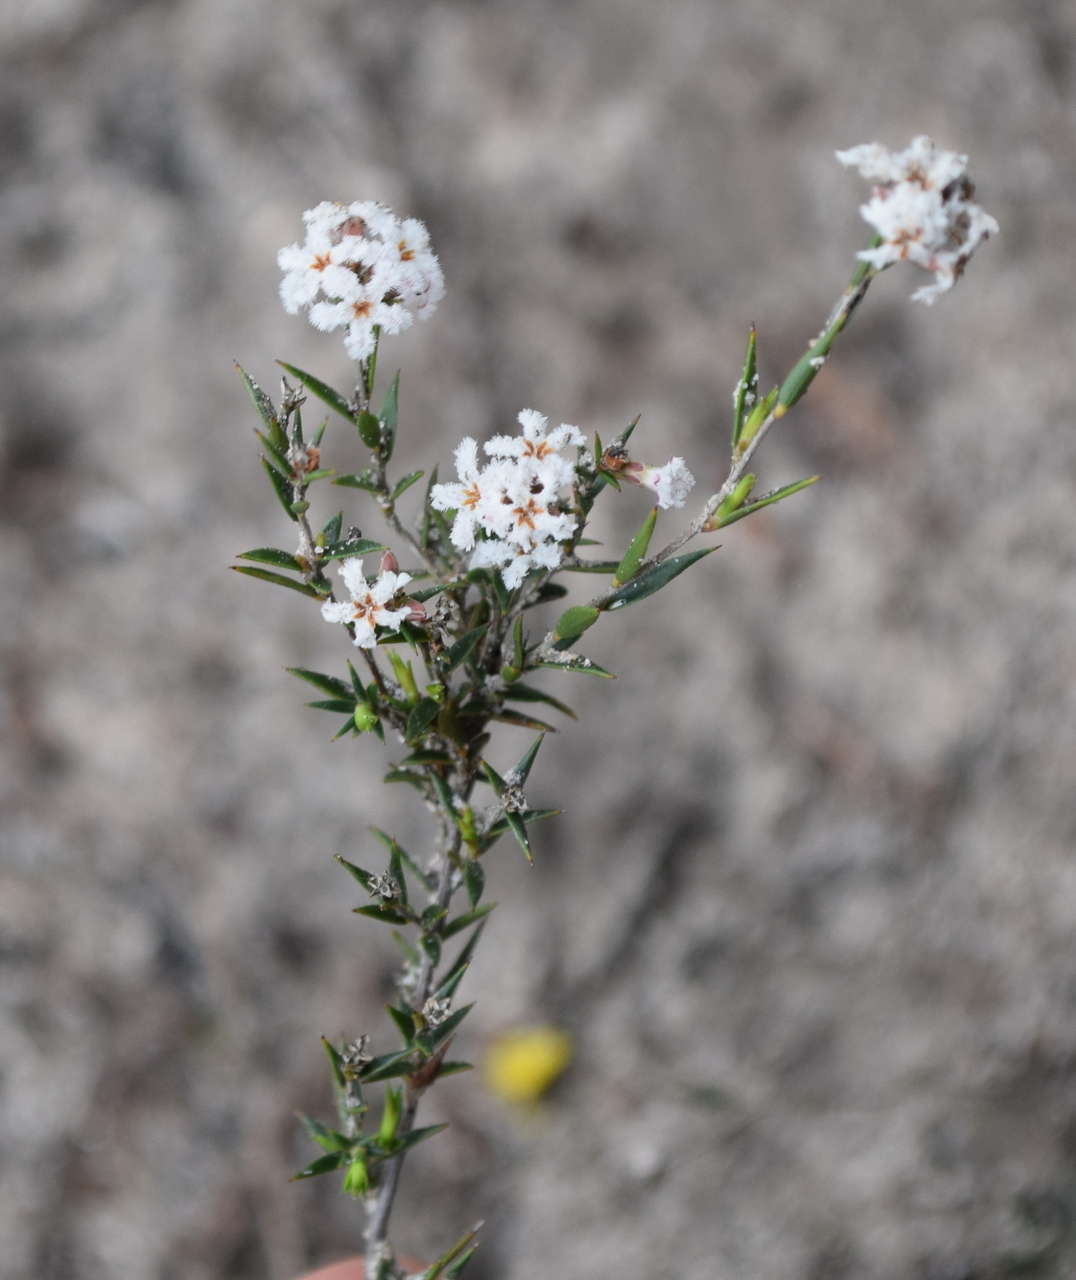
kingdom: Plantae
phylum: Tracheophyta
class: Magnoliopsida
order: Ericales
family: Ericaceae
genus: Leucopogon
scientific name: Leucopogon virgatus
